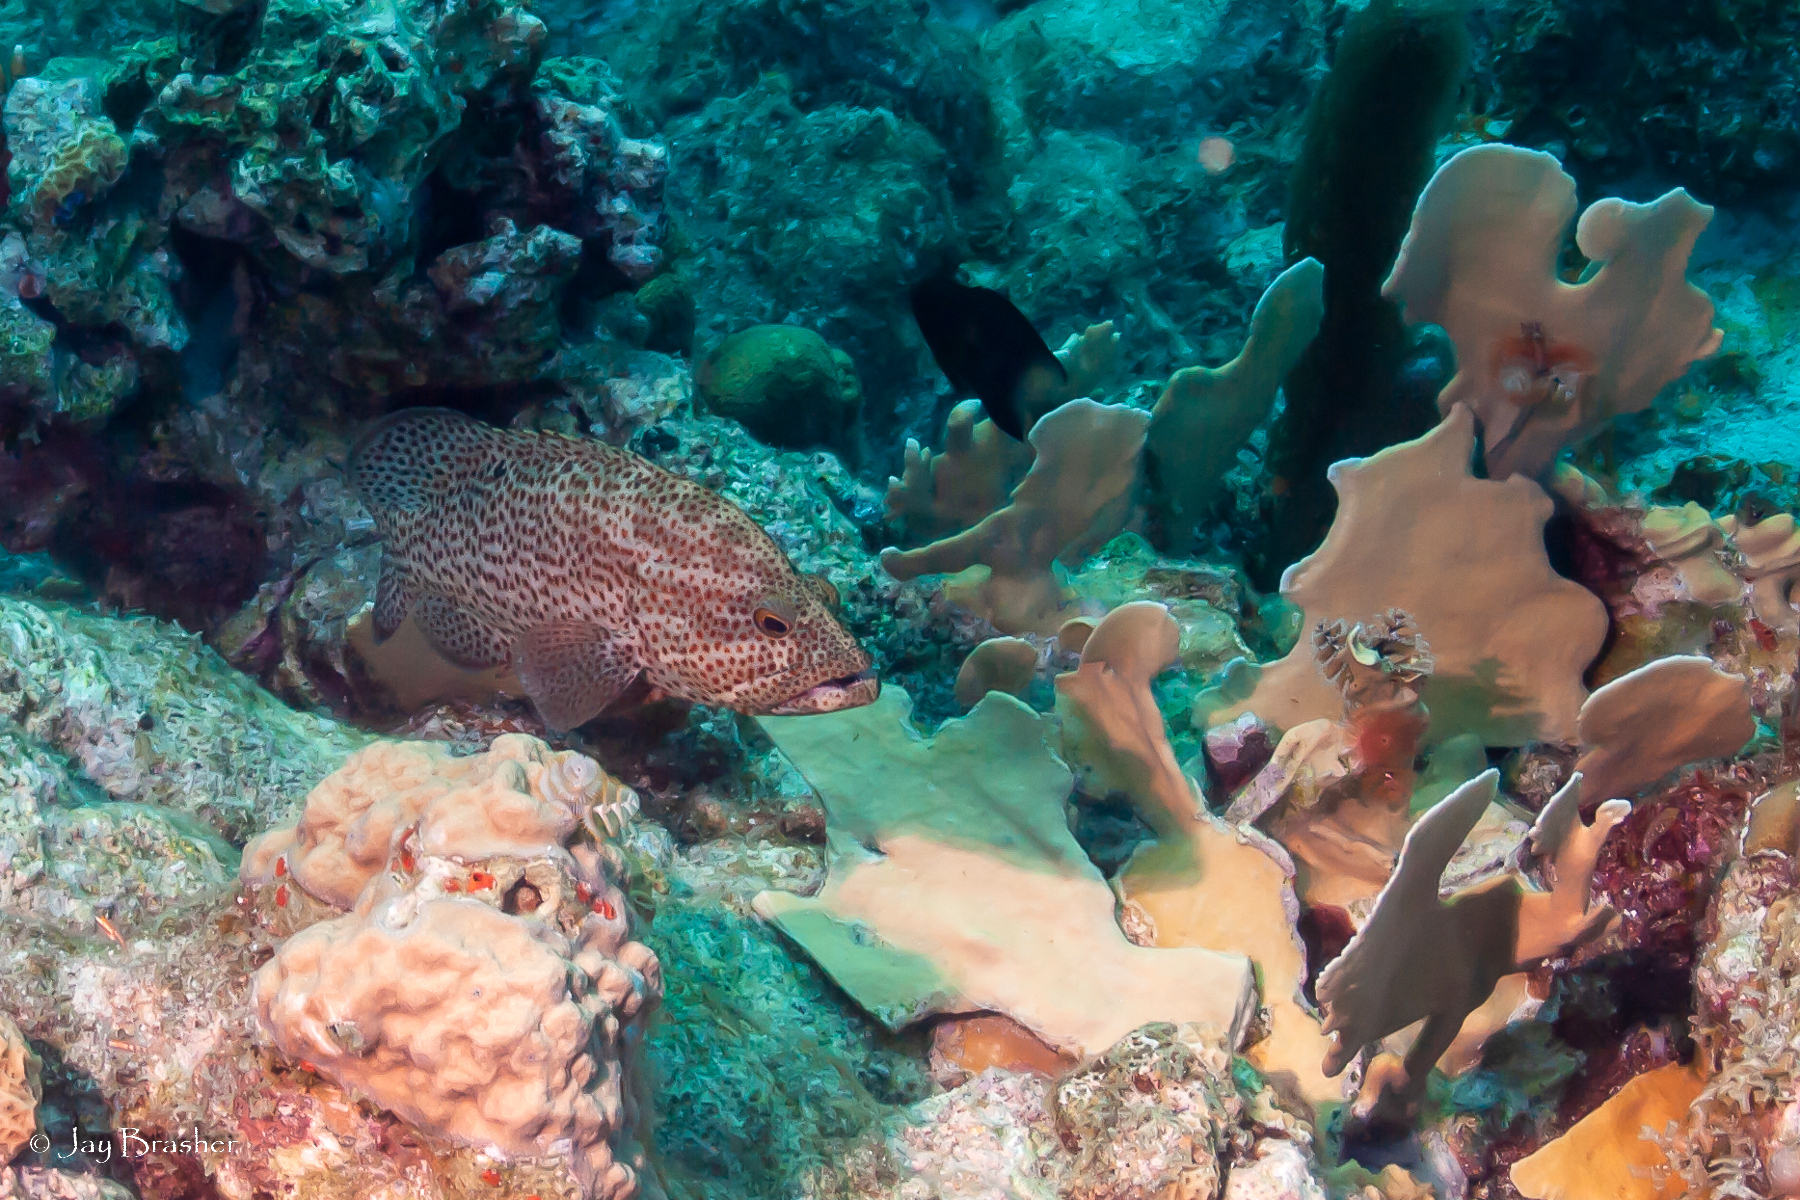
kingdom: Animalia
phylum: Cnidaria
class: Hydrozoa
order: Anthoathecata
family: Milleporidae
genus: Millepora
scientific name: Millepora complanata
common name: Bladed fire coral
